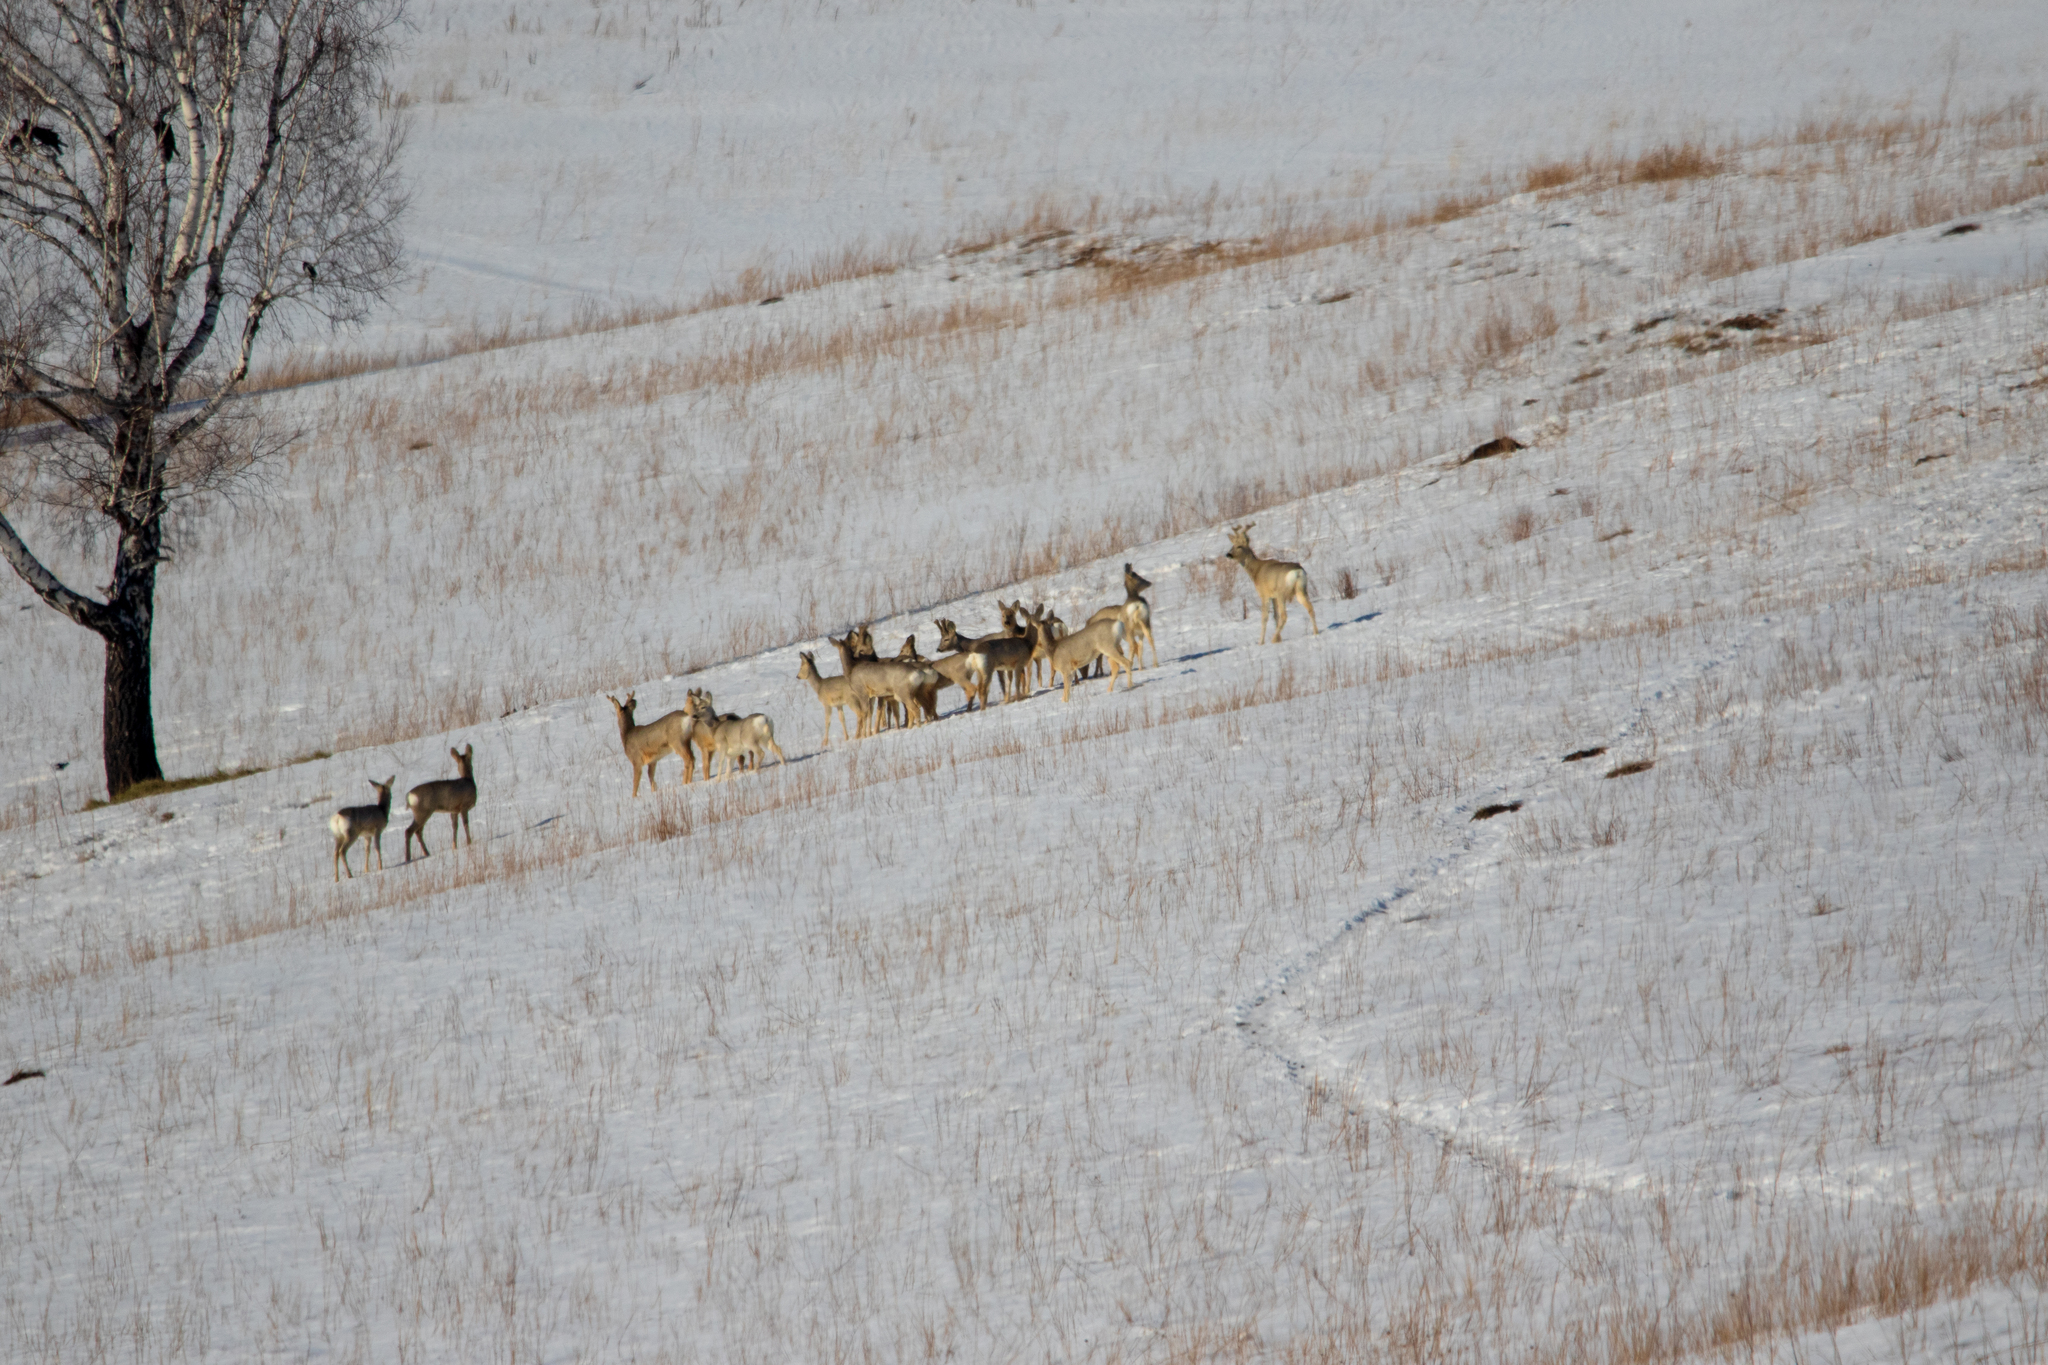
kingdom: Animalia
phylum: Chordata
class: Mammalia
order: Artiodactyla
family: Cervidae
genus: Capreolus
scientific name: Capreolus pygargus
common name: Siberian roe
